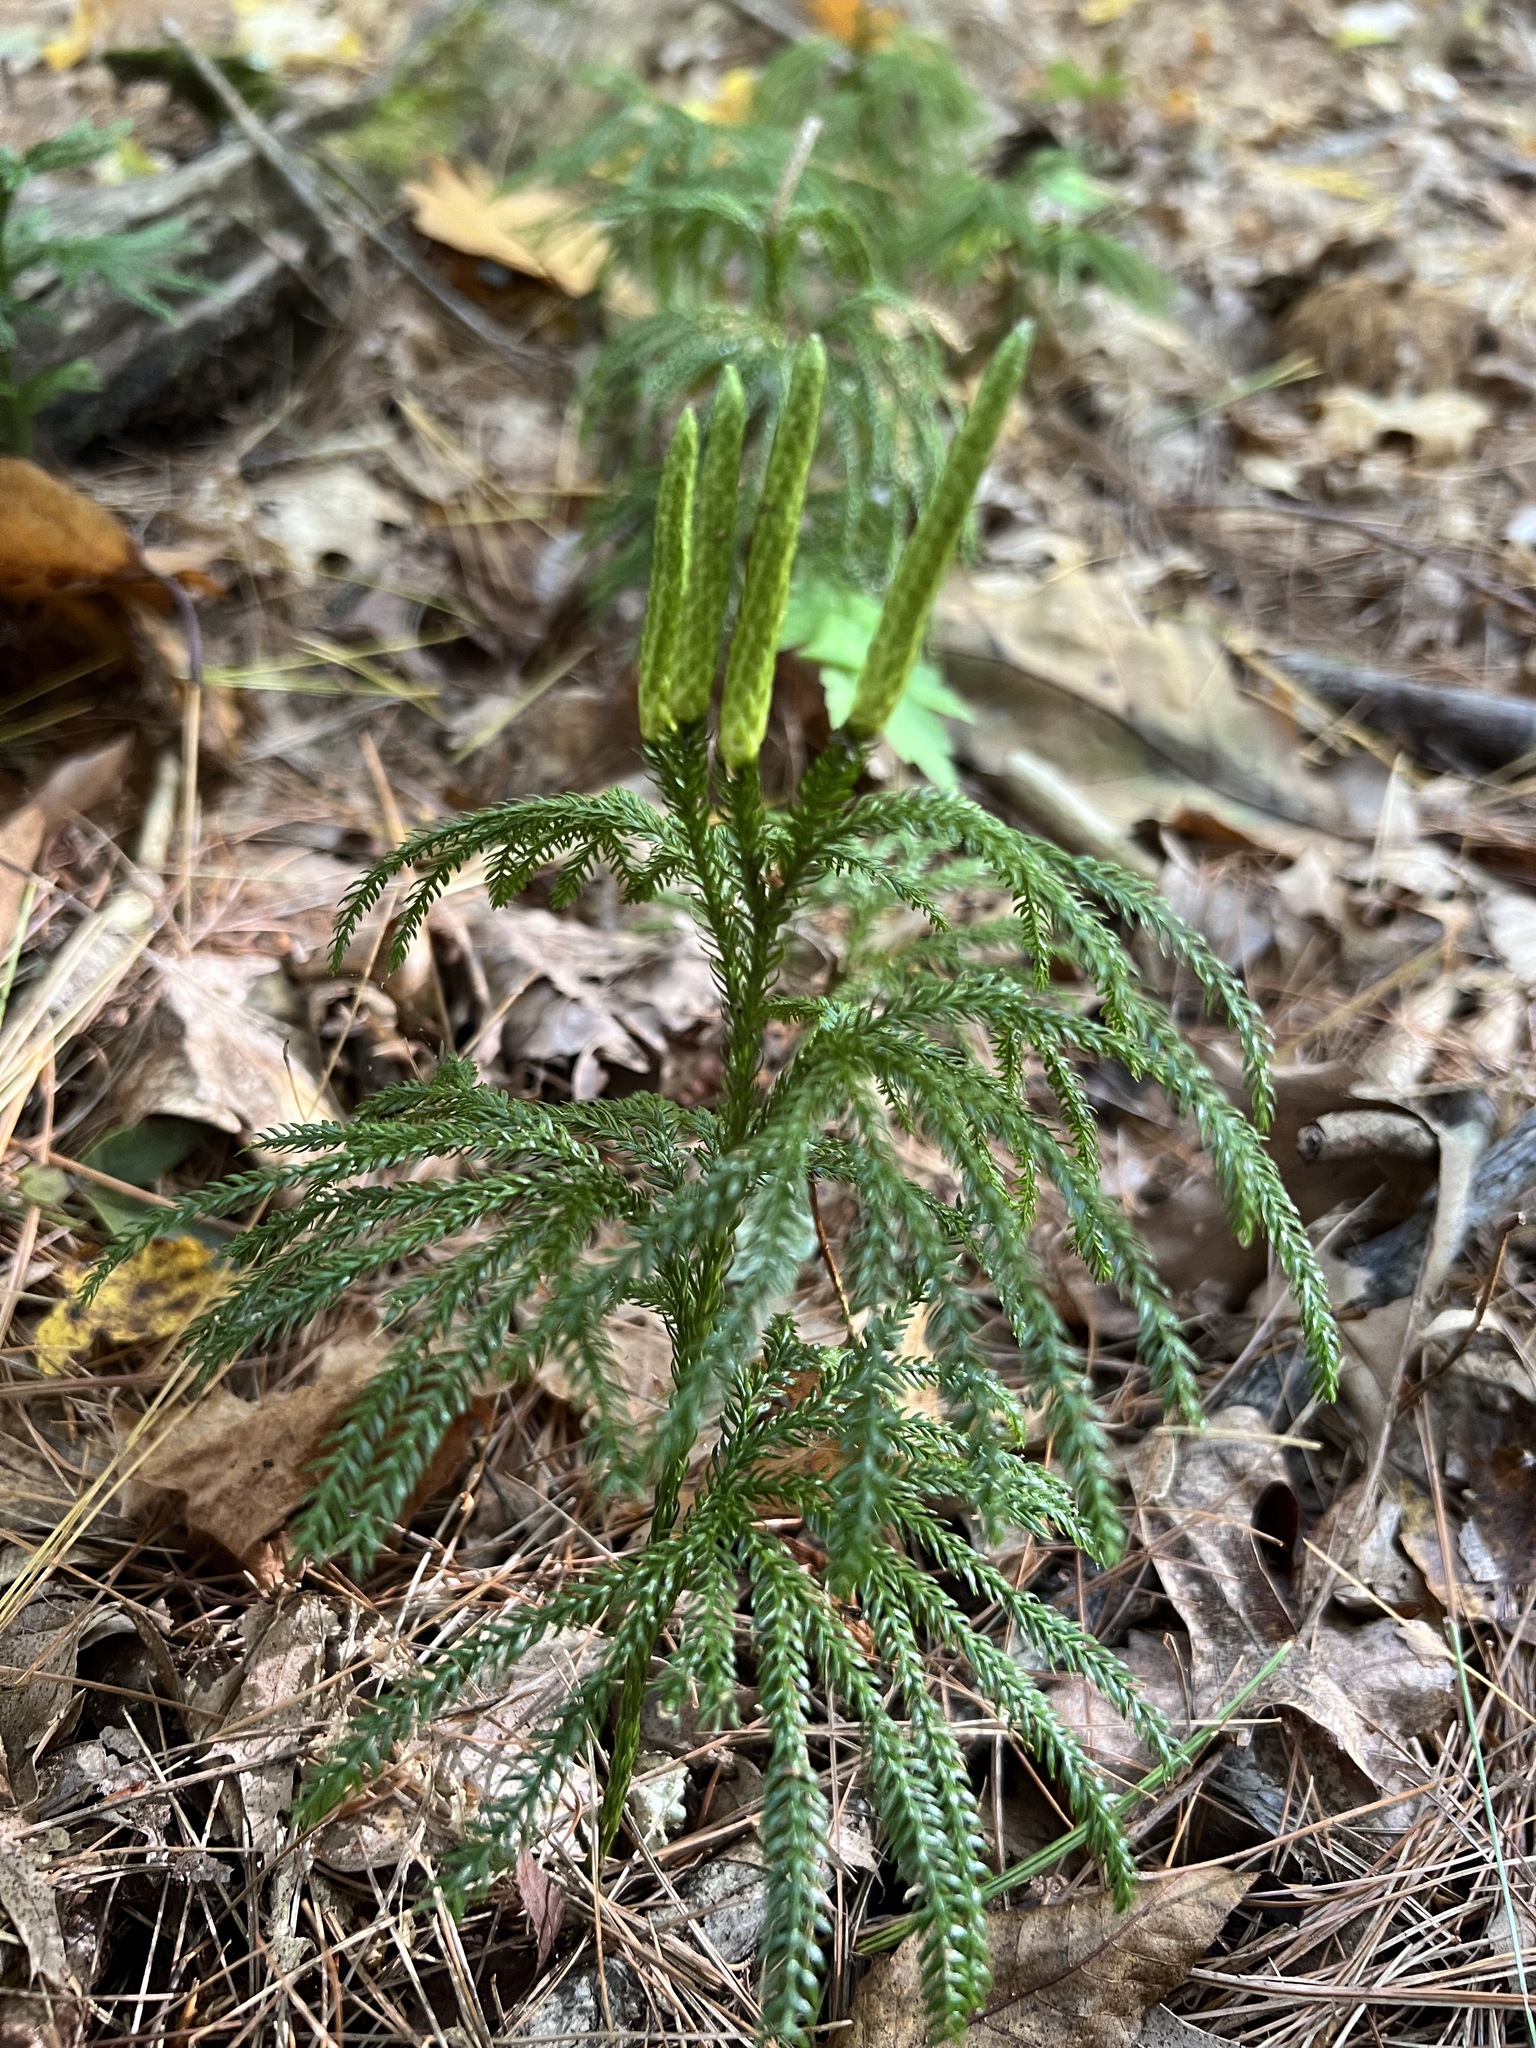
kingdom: Plantae
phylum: Tracheophyta
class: Lycopodiopsida
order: Lycopodiales
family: Lycopodiaceae
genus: Dendrolycopodium
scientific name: Dendrolycopodium obscurum
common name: Common ground-pine
